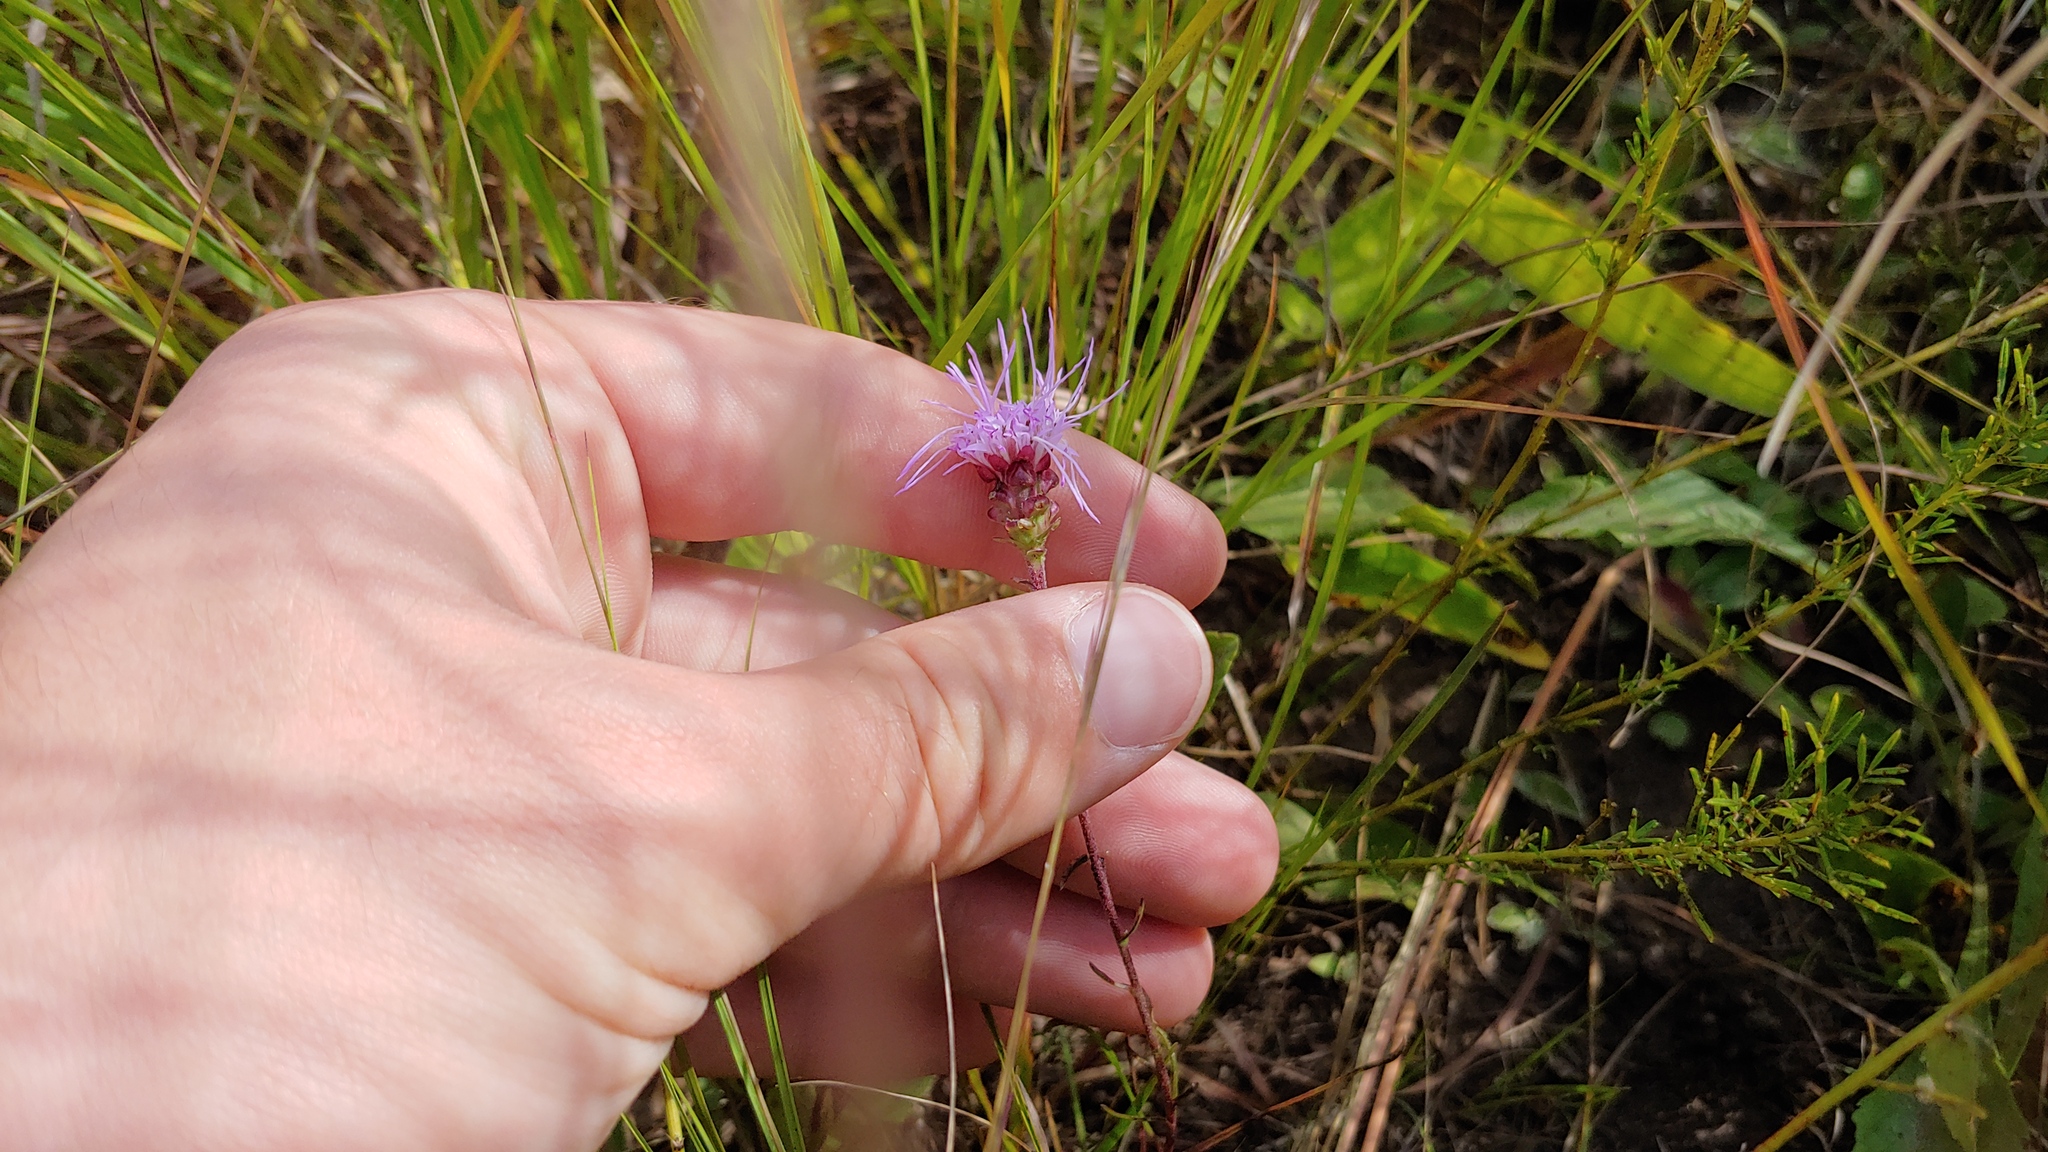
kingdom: Plantae
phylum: Tracheophyta
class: Magnoliopsida
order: Asterales
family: Asteraceae
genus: Liatris
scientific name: Liatris aspera
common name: Lacerate blazing-star
